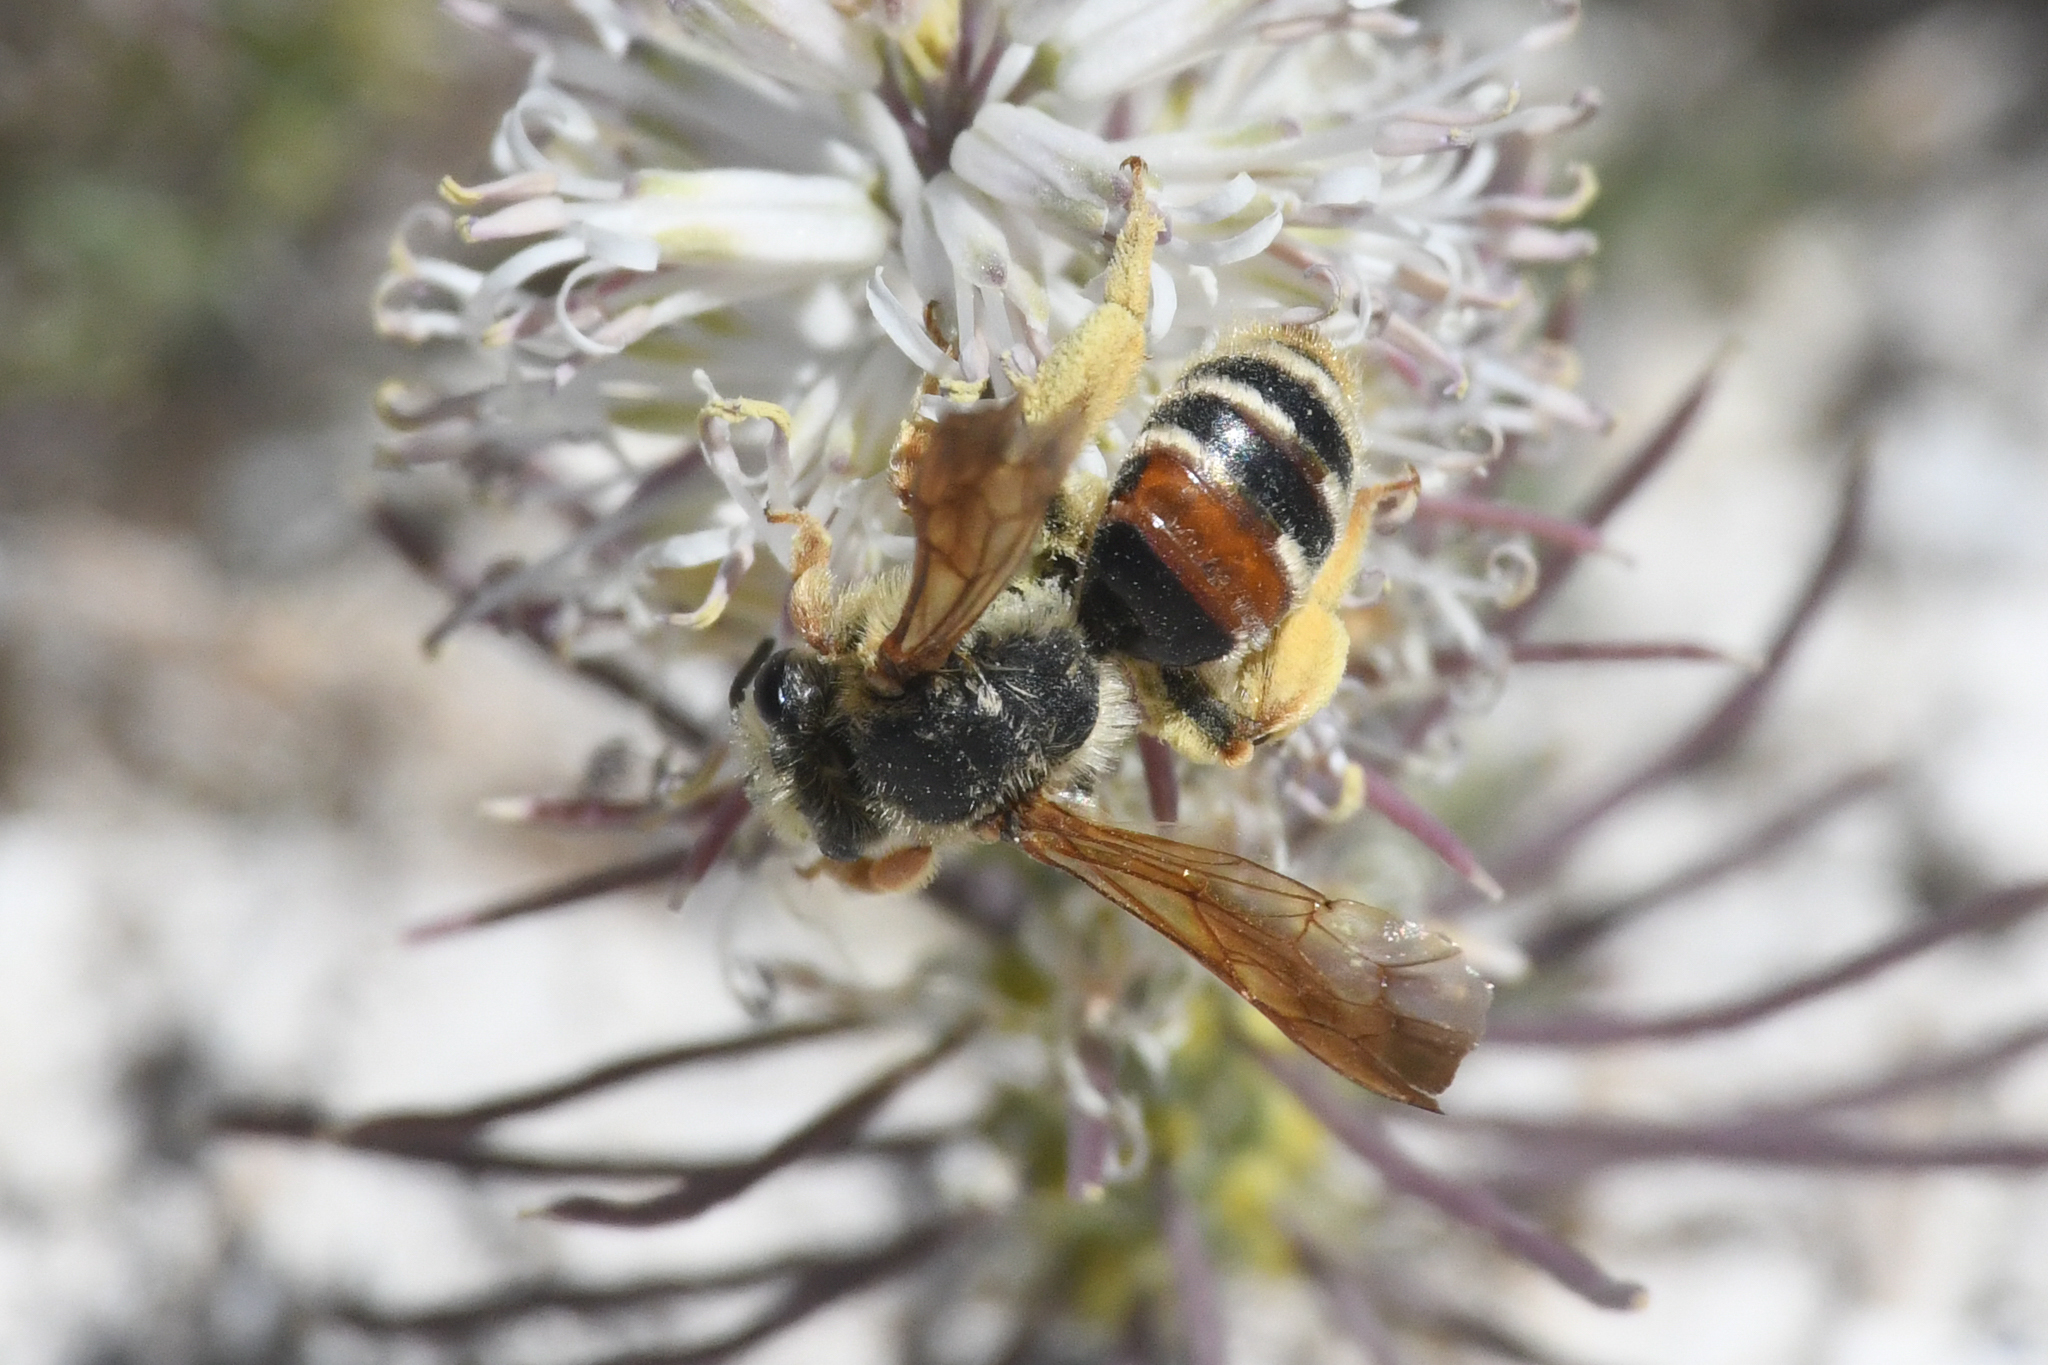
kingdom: Animalia
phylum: Arthropoda
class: Insecta
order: Hymenoptera
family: Andrenidae
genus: Andrena
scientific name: Andrena prunorum
